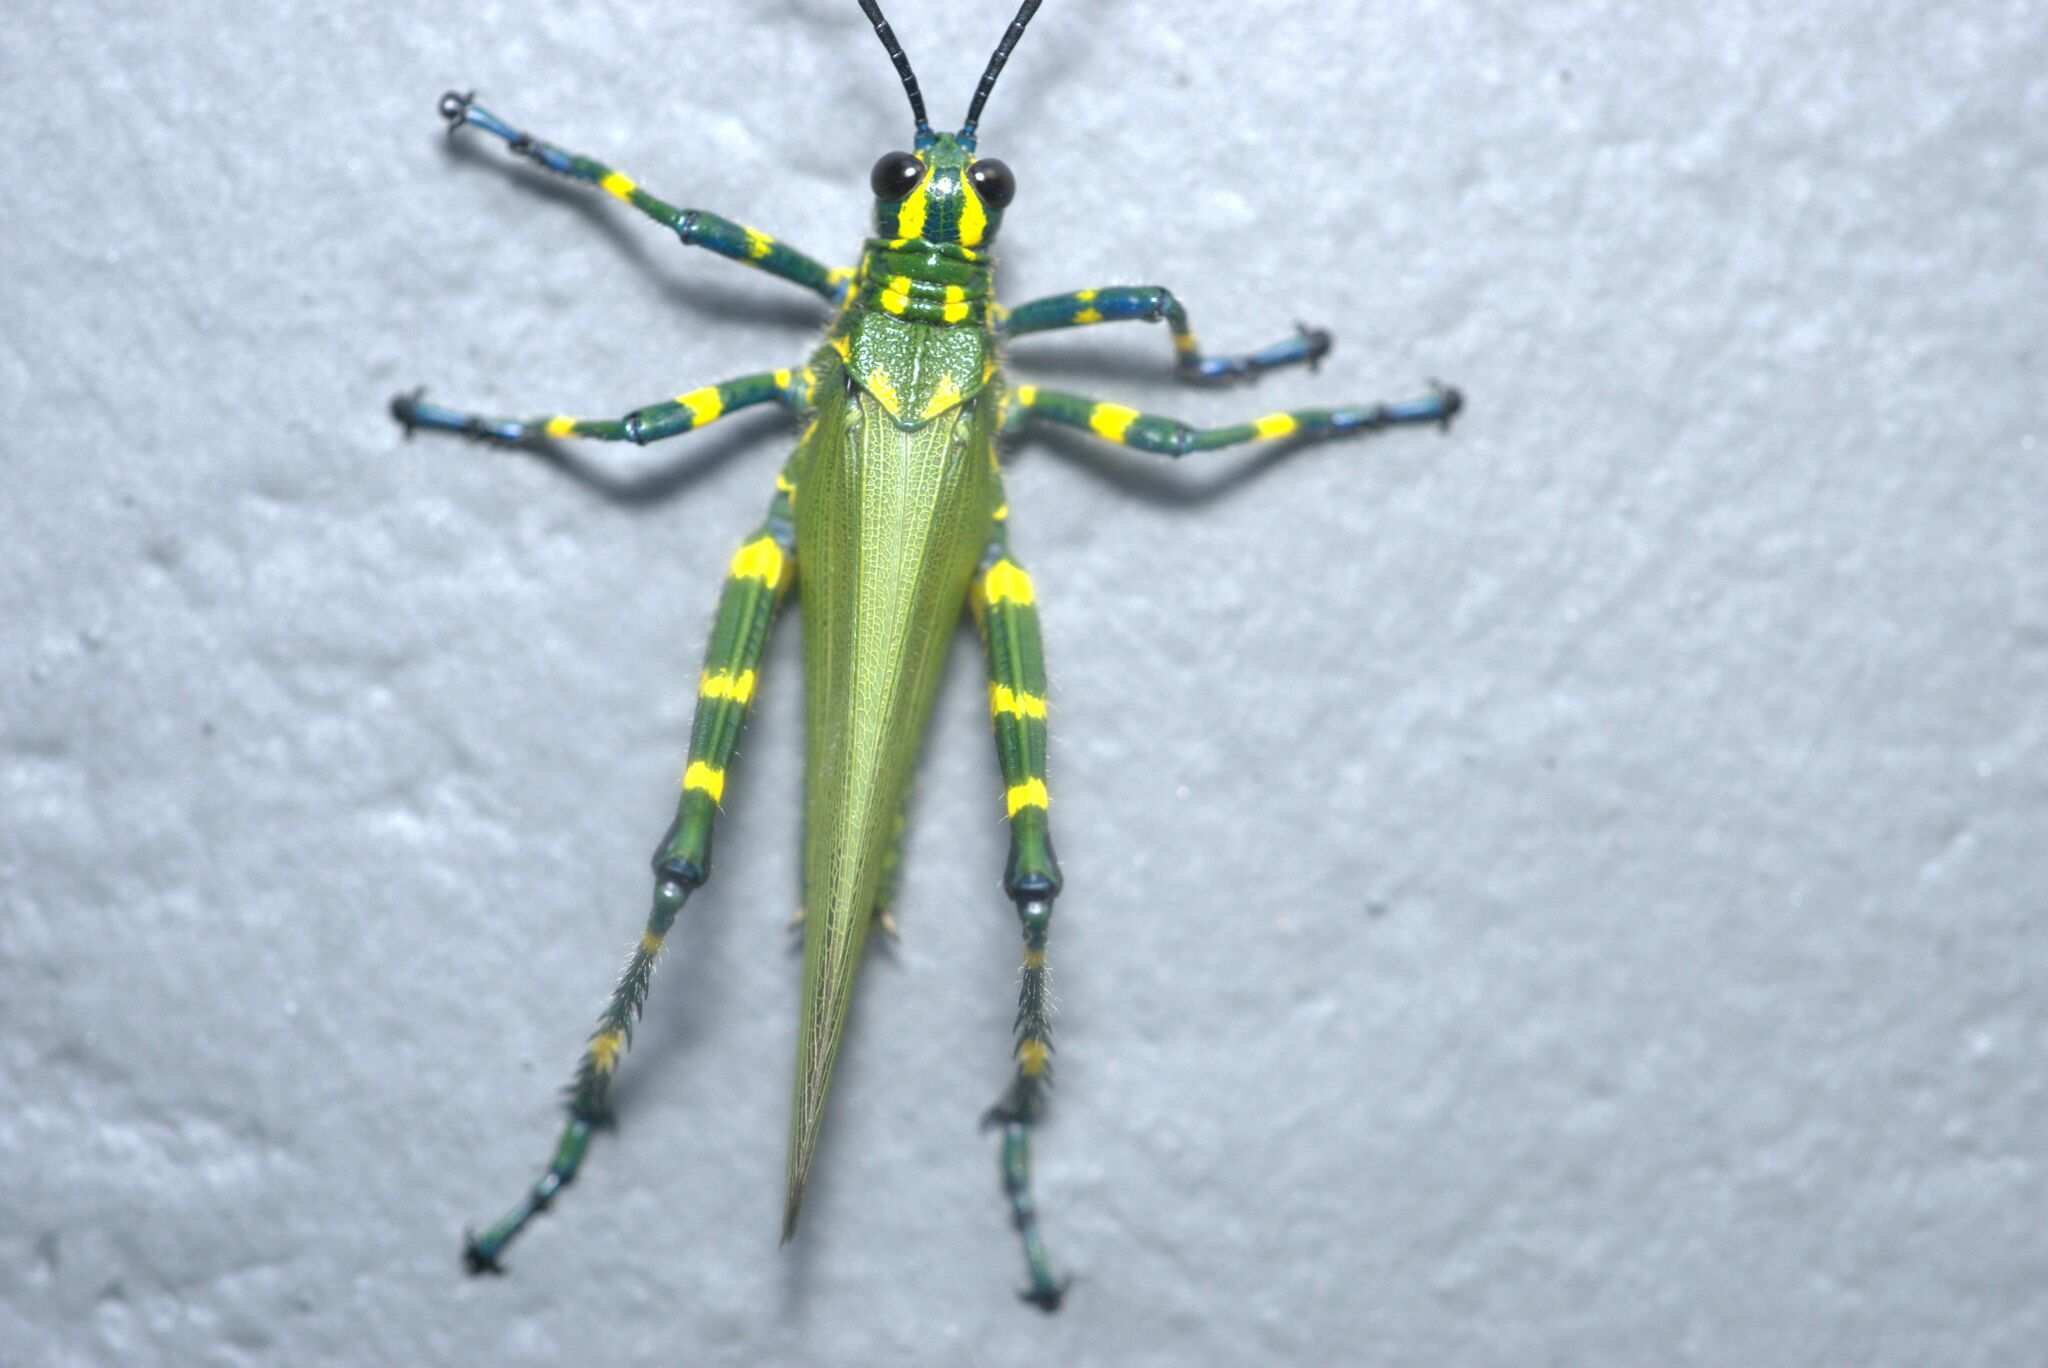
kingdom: Animalia
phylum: Arthropoda
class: Insecta
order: Orthoptera
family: Romaleidae
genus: Chromacris
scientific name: Chromacris speciosa
